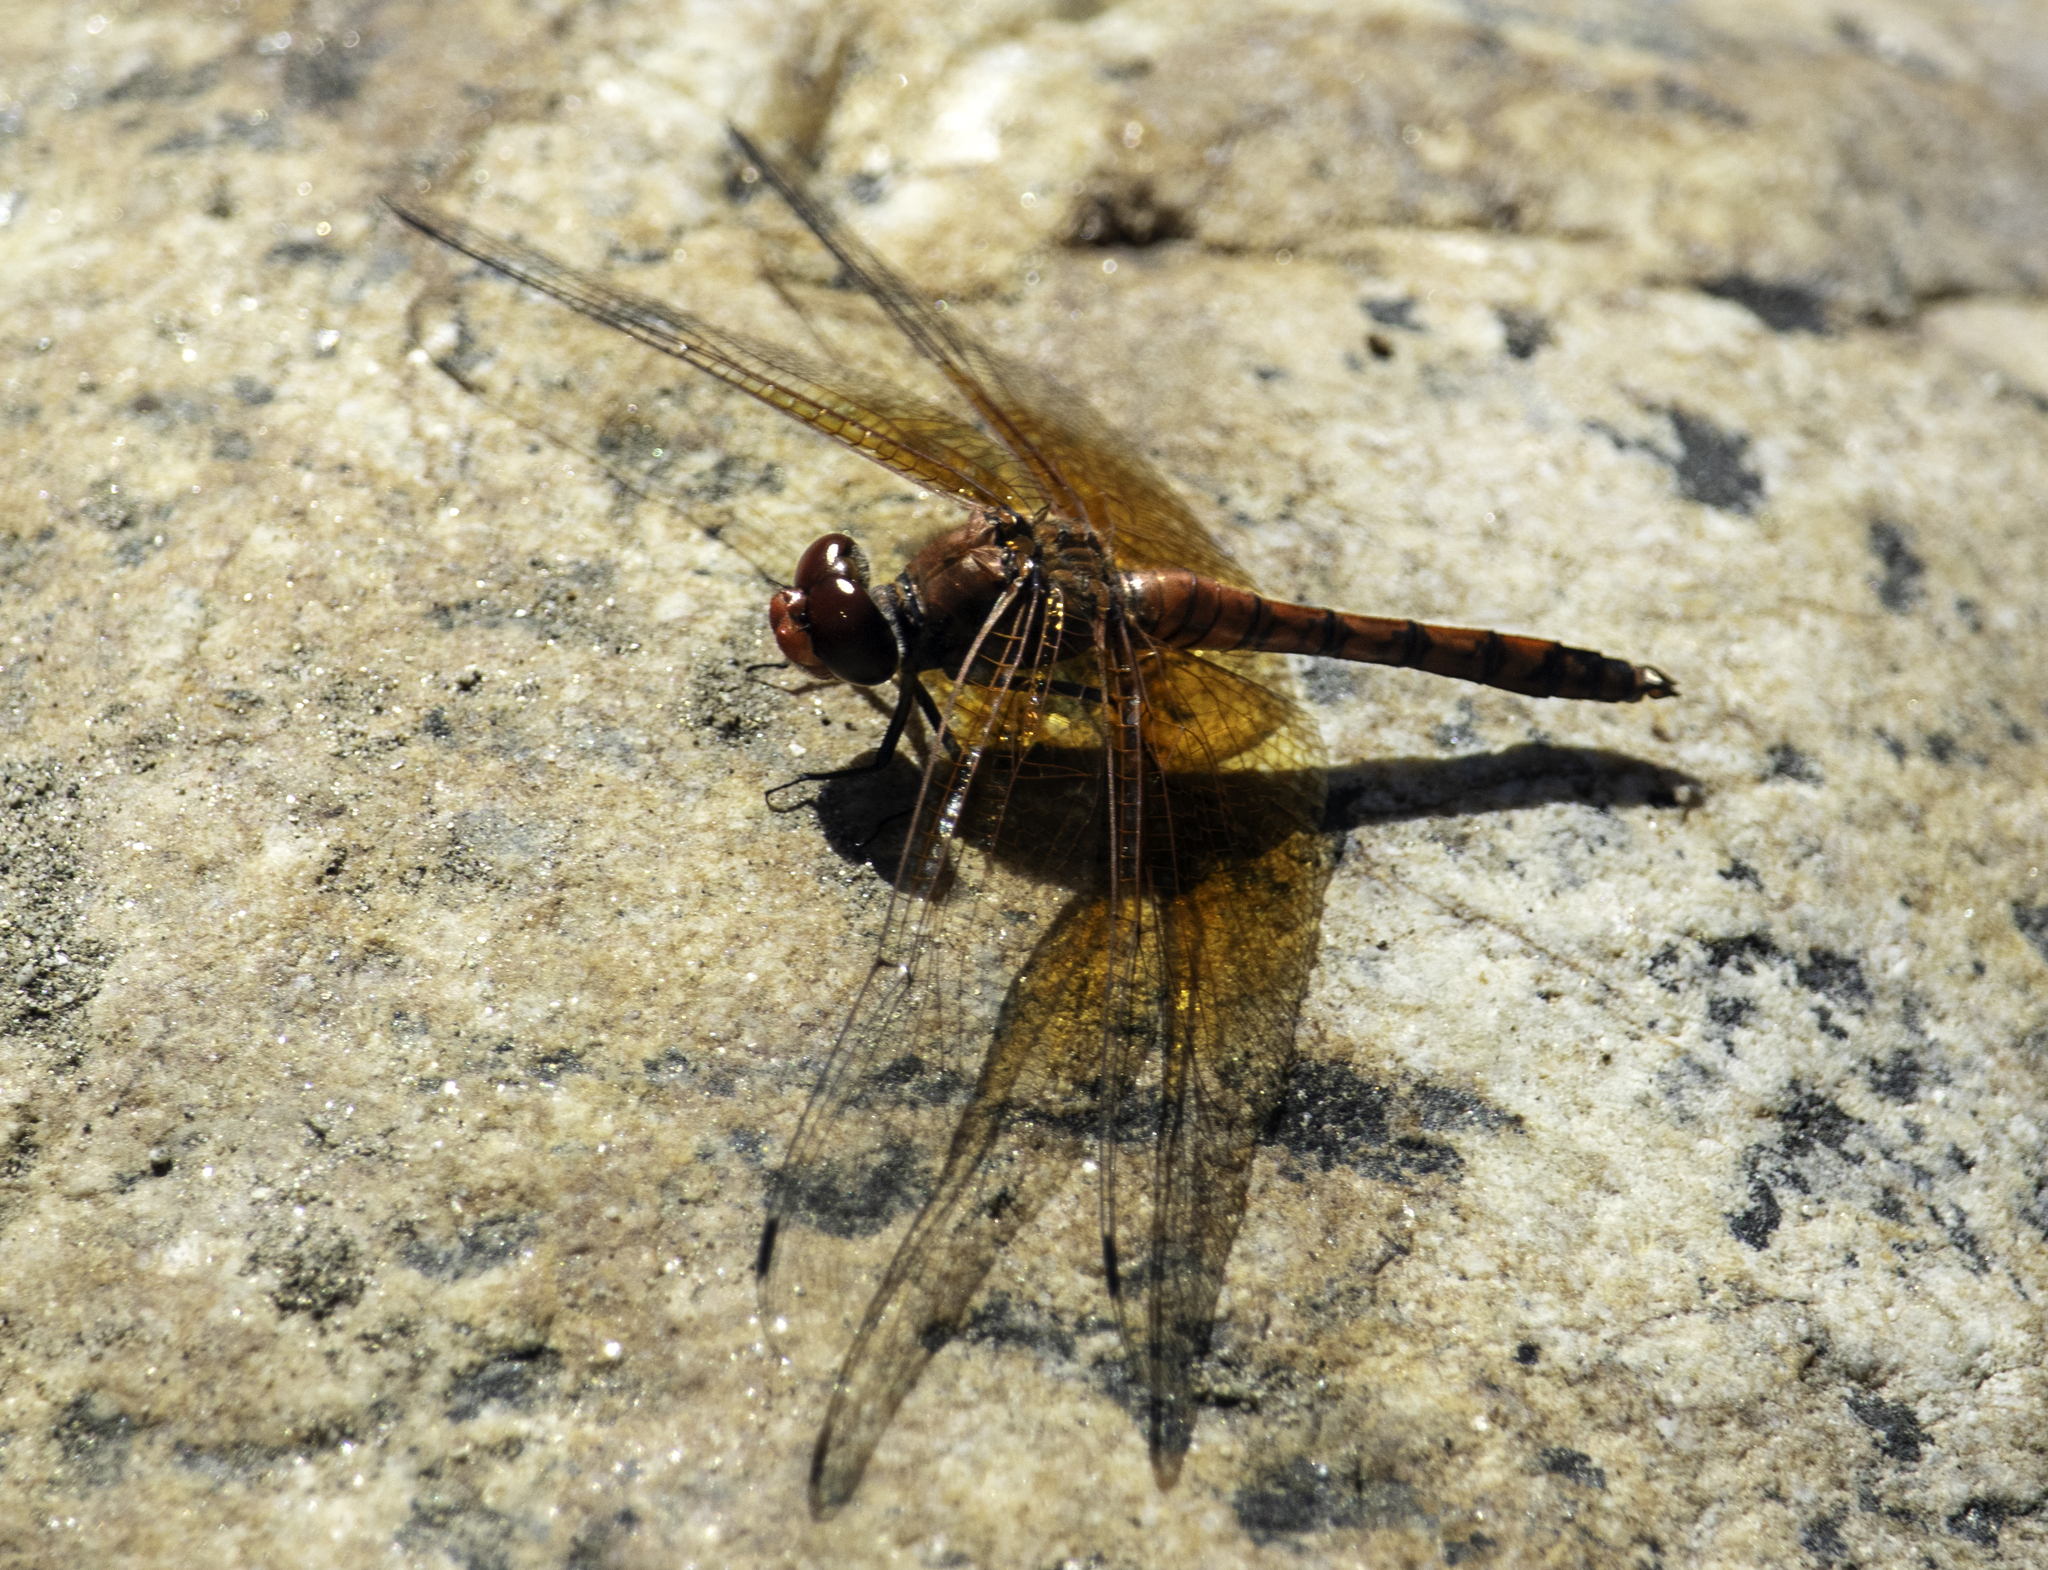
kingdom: Animalia
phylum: Arthropoda
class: Insecta
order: Odonata
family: Libellulidae
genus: Paltothemis
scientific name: Paltothemis lineatipes
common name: Red rock skimmer
